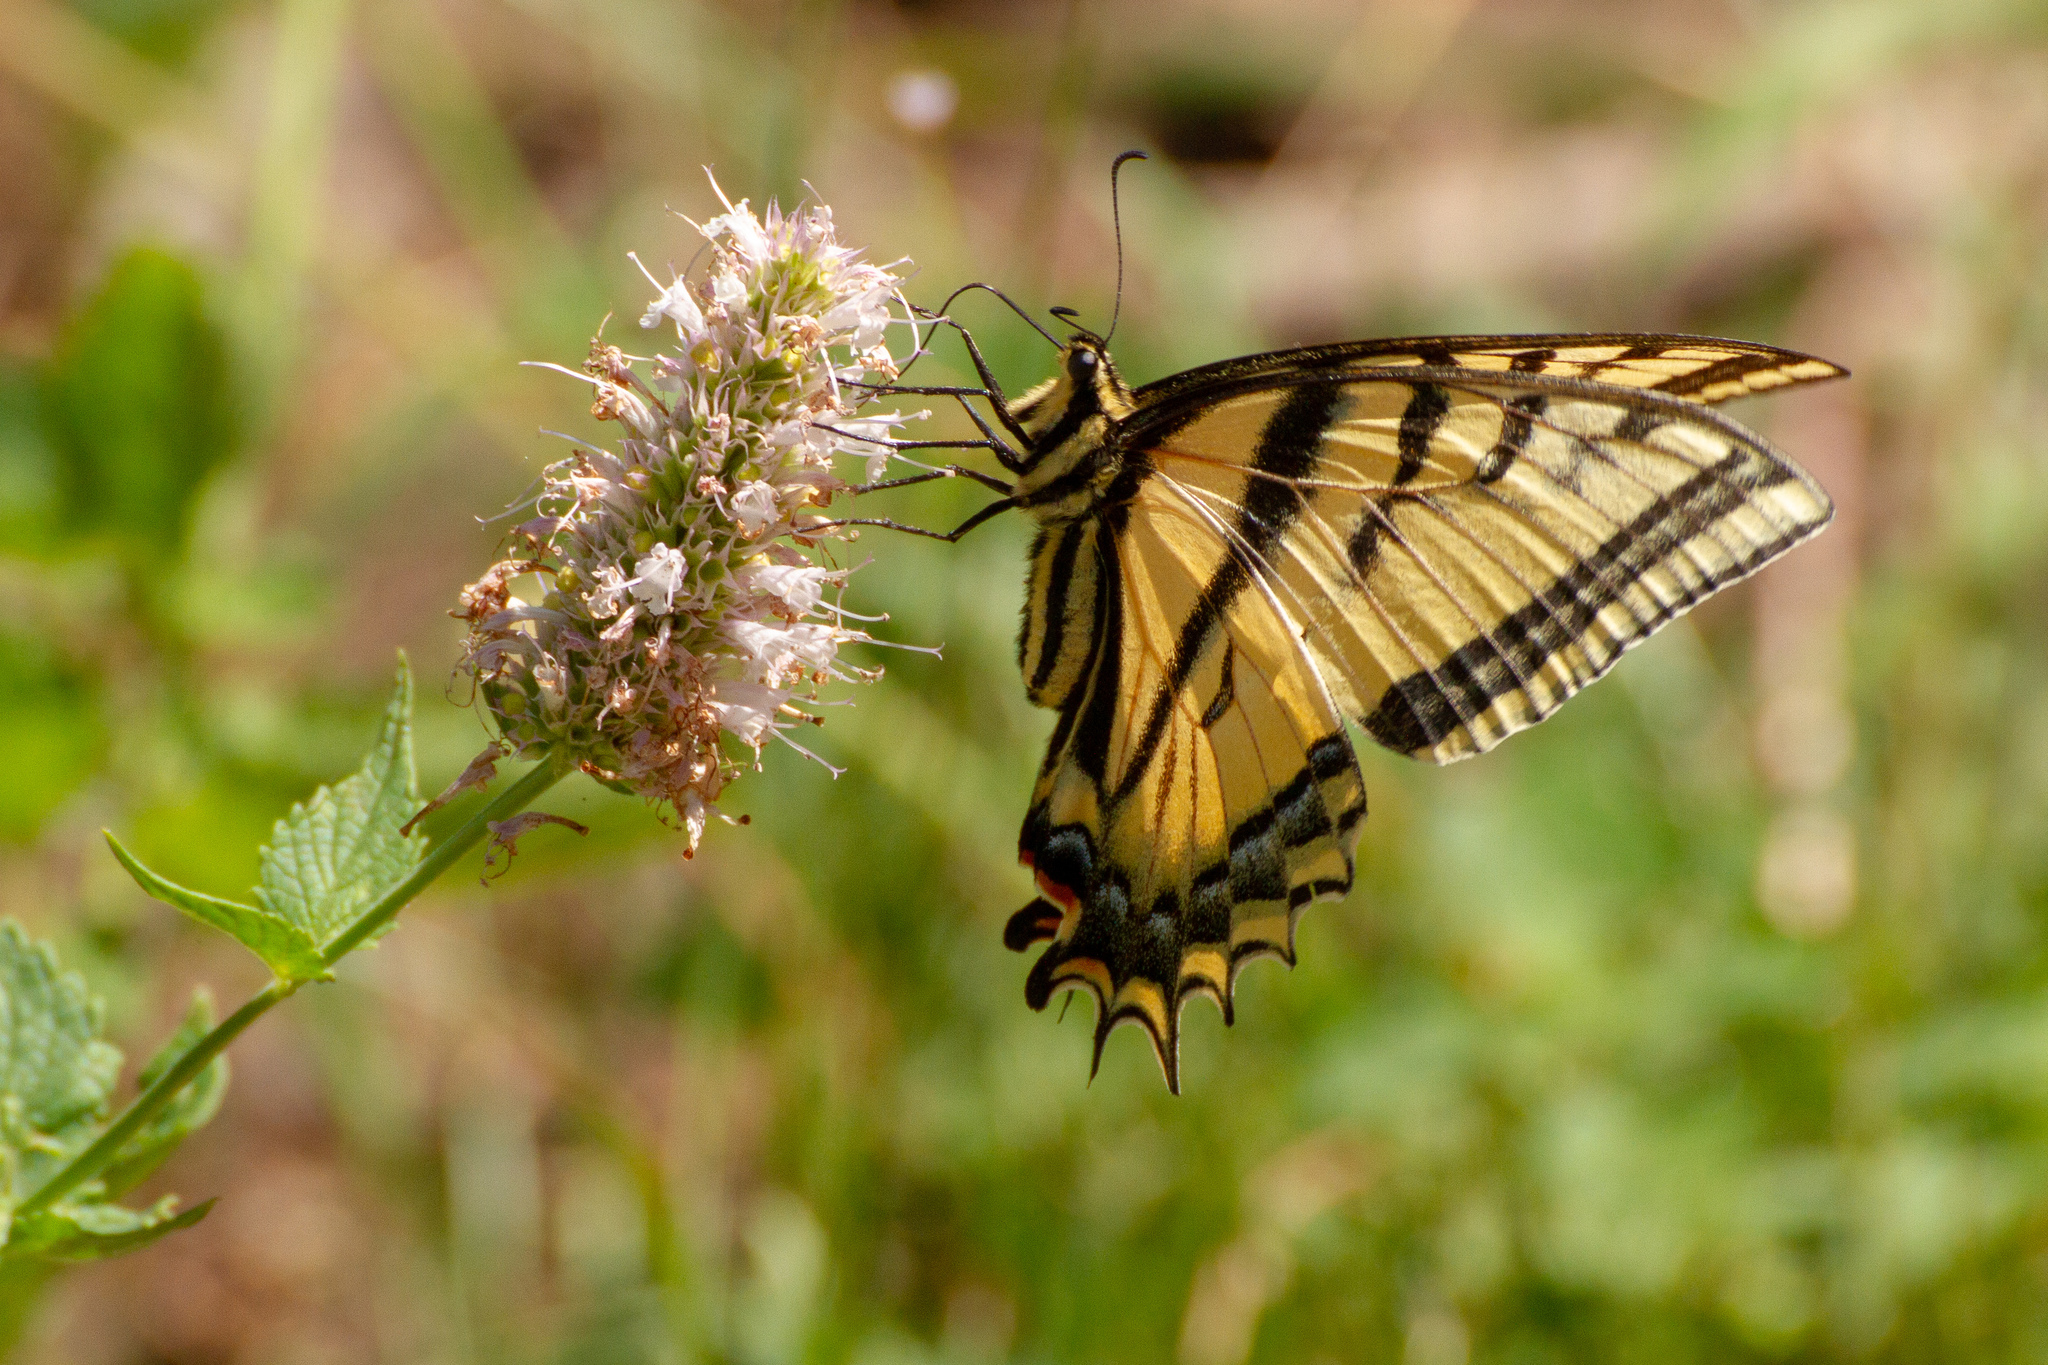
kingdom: Animalia
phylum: Arthropoda
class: Insecta
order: Lepidoptera
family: Papilionidae
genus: Papilio
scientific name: Papilio multicaudata
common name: Two-tailed tiger swallowtail
